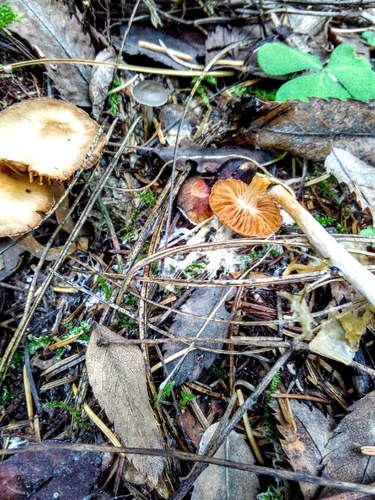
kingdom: Fungi
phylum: Basidiomycota
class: Agaricomycetes
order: Agaricales
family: Cortinariaceae
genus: Cortinarius
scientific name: Cortinarius
